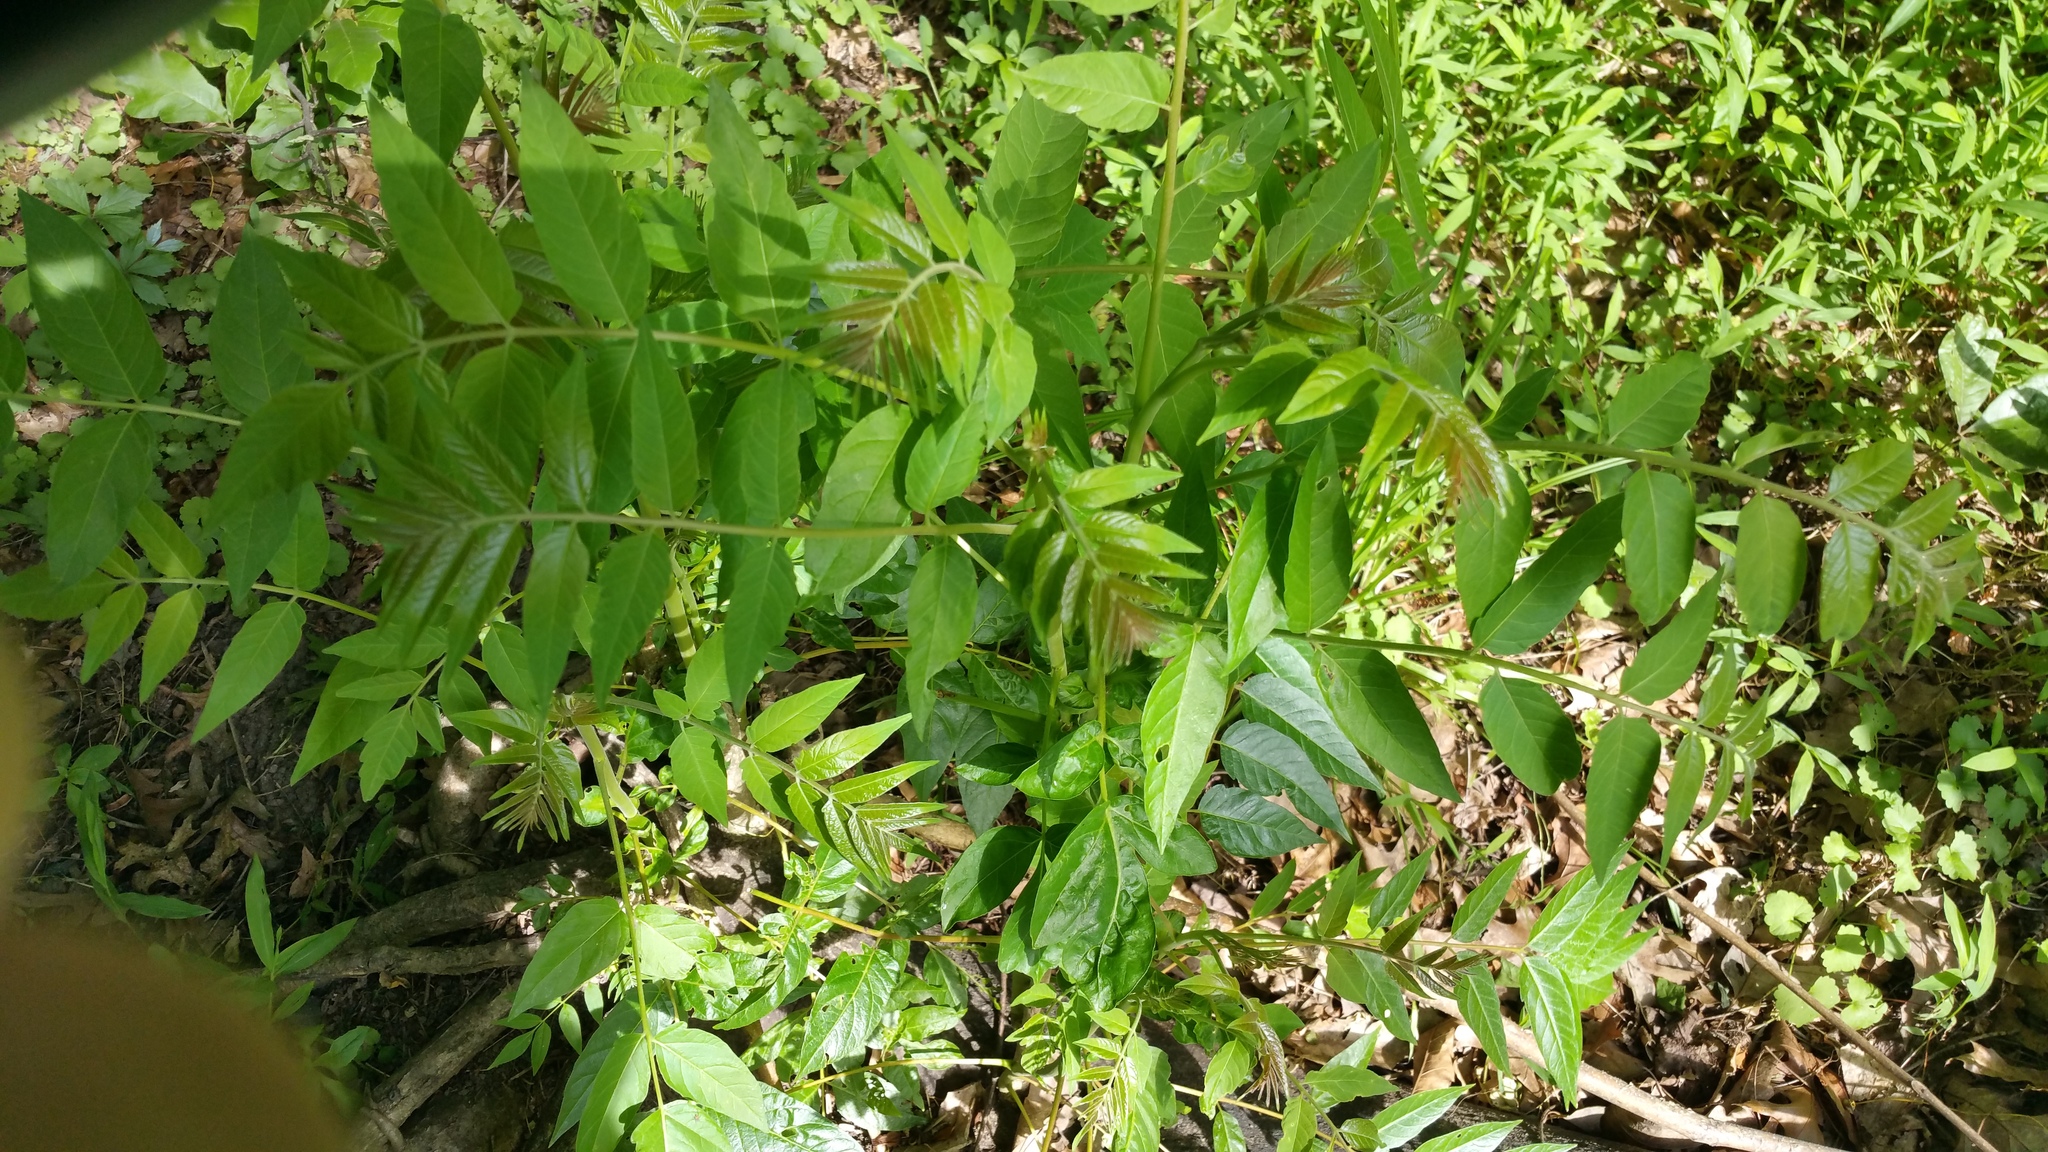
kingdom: Plantae
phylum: Tracheophyta
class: Magnoliopsida
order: Sapindales
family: Simaroubaceae
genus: Ailanthus
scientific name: Ailanthus altissima
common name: Tree-of-heaven
